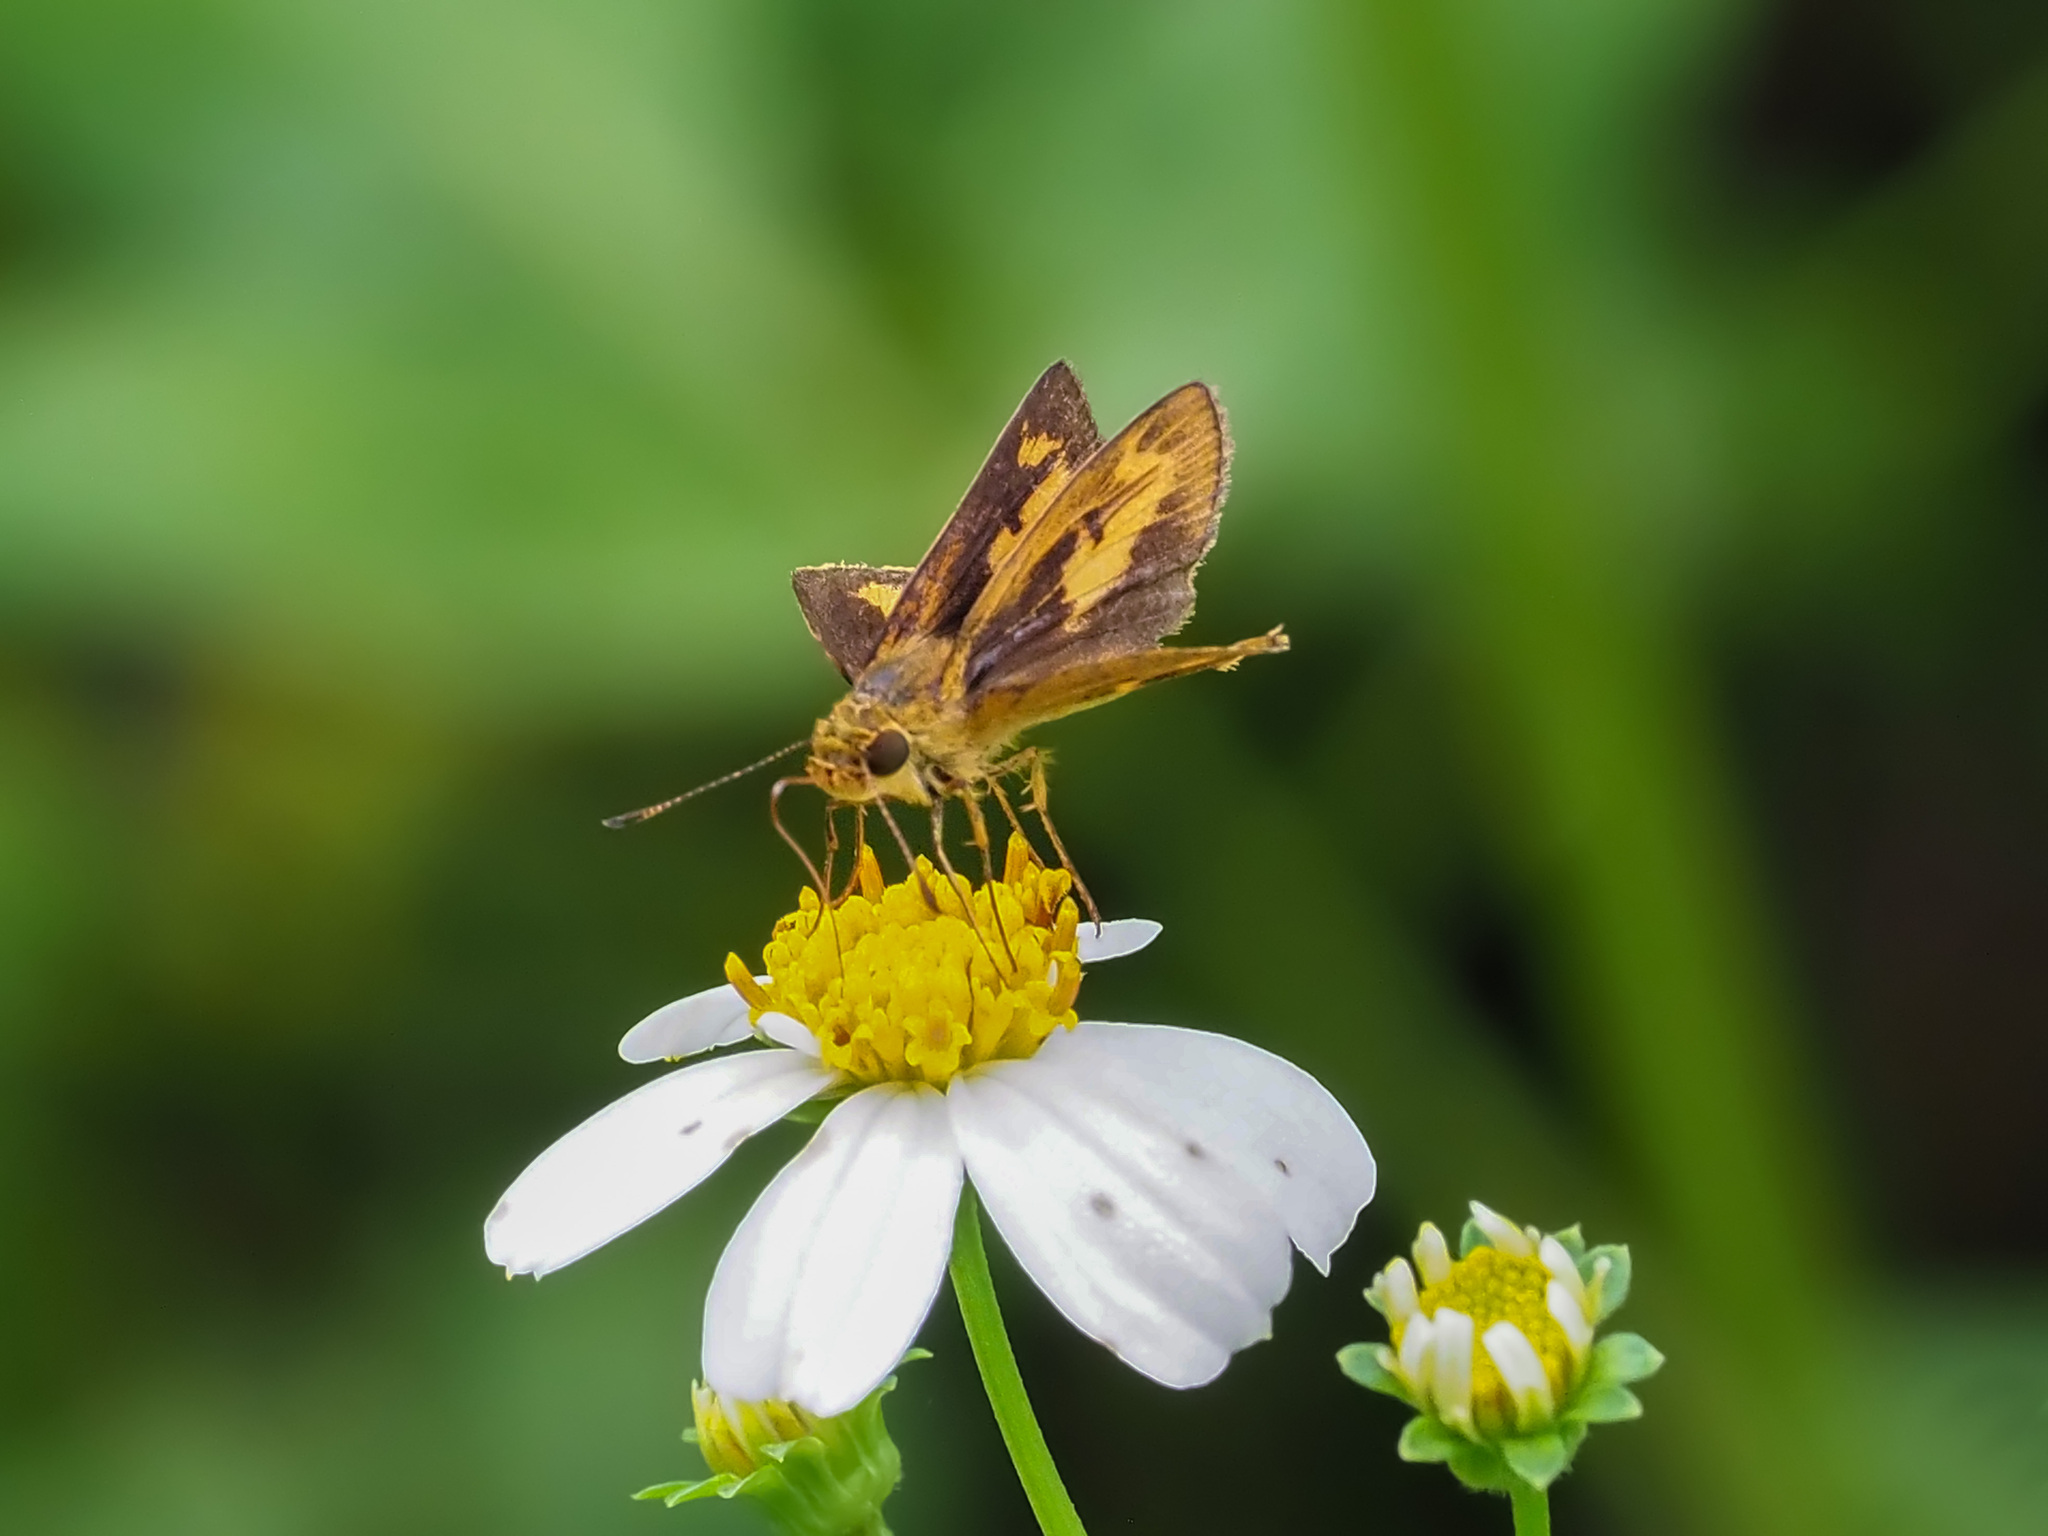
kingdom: Animalia
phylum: Arthropoda
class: Insecta
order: Lepidoptera
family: Hesperiidae
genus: Oriens
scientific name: Oriens gola
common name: Common dartlet
